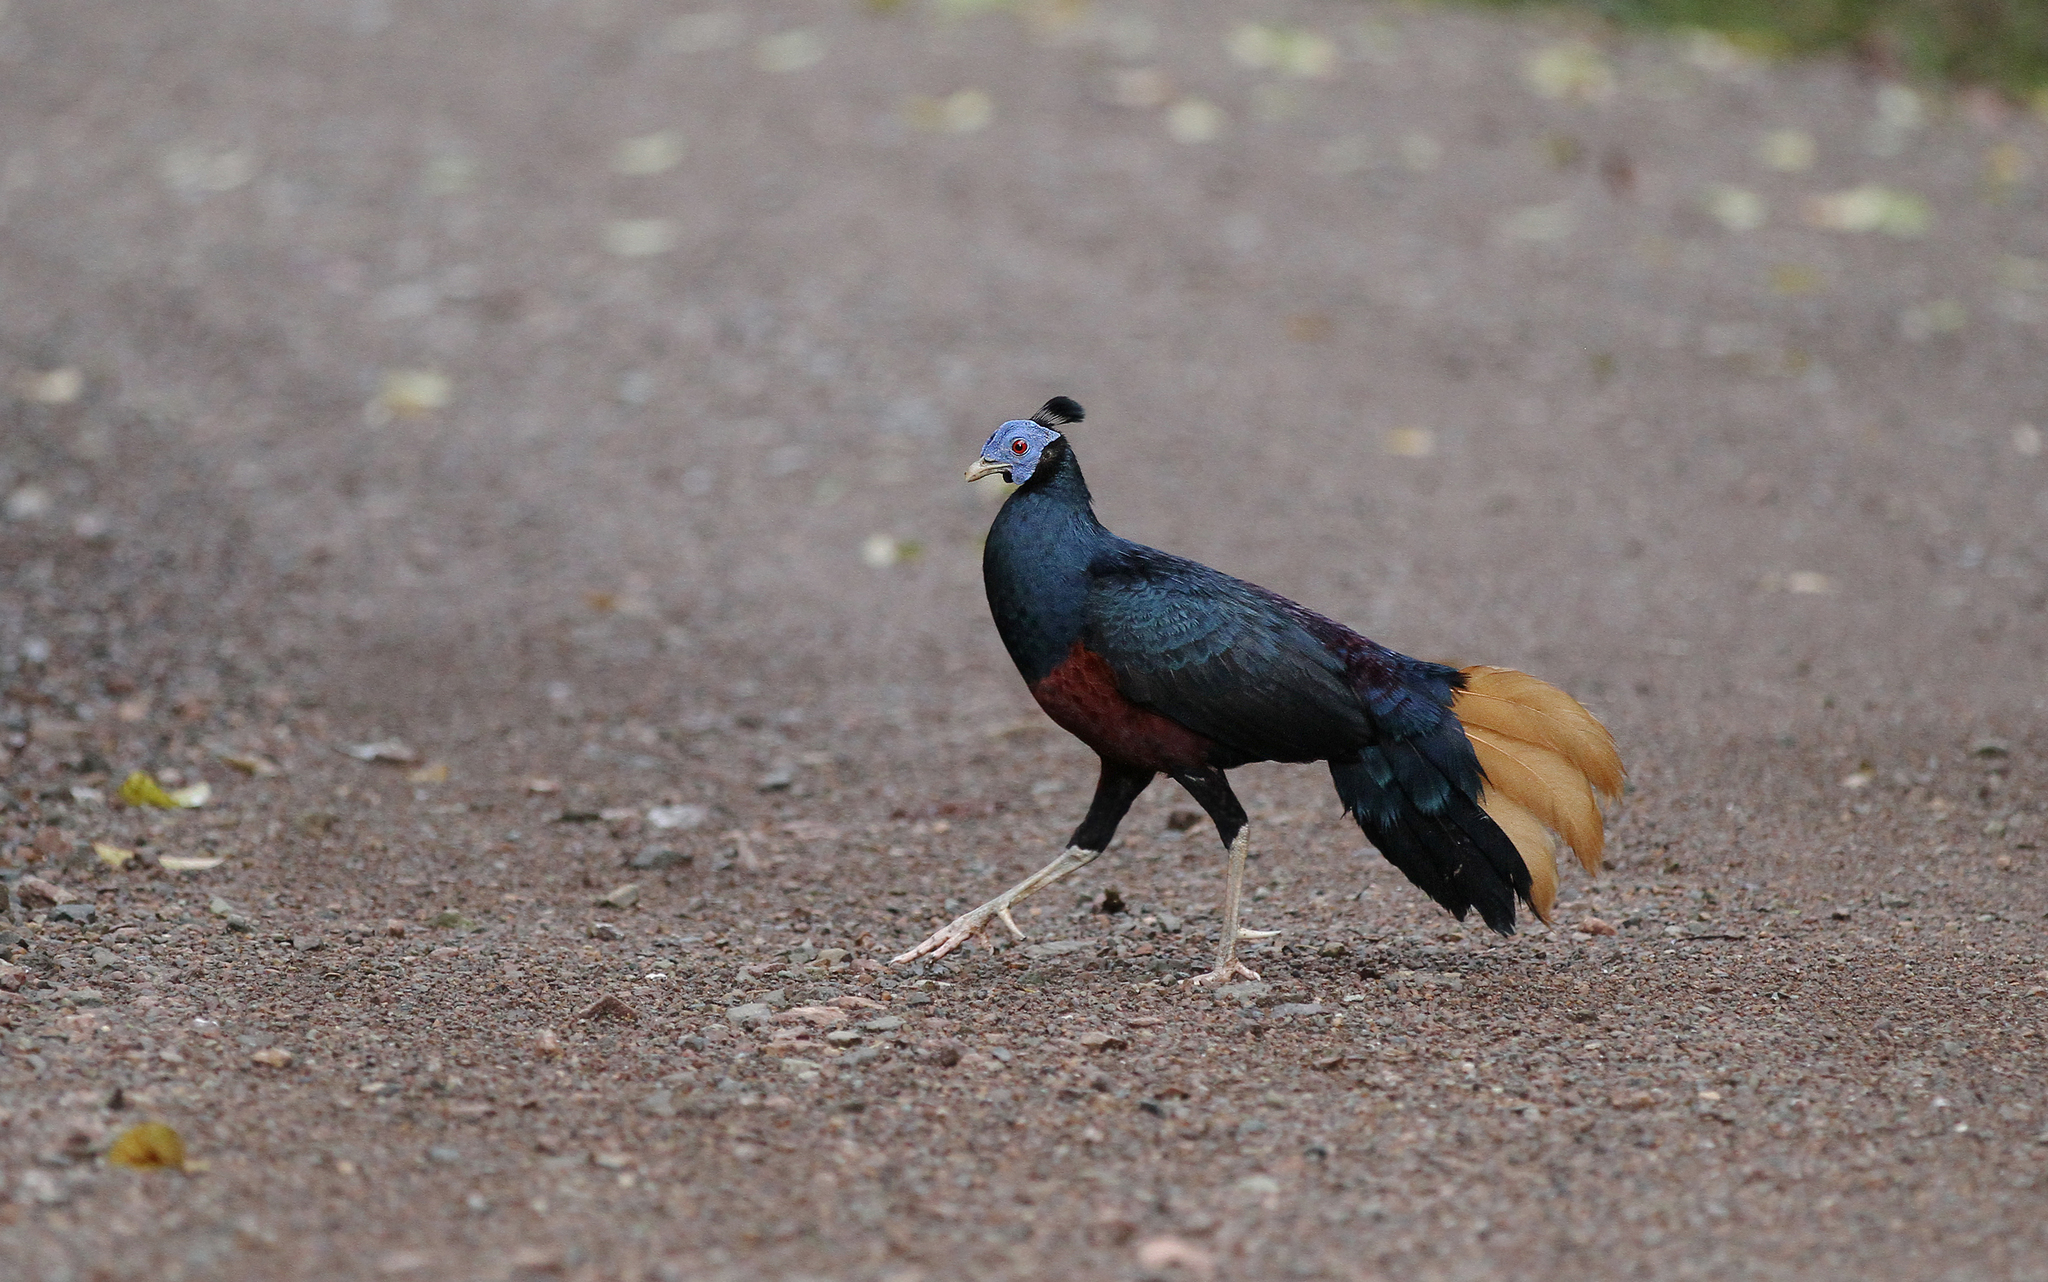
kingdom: Animalia
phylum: Chordata
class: Aves
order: Galliformes
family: Phasianidae
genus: Lophura
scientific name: Lophura ignita
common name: Crested fireback
